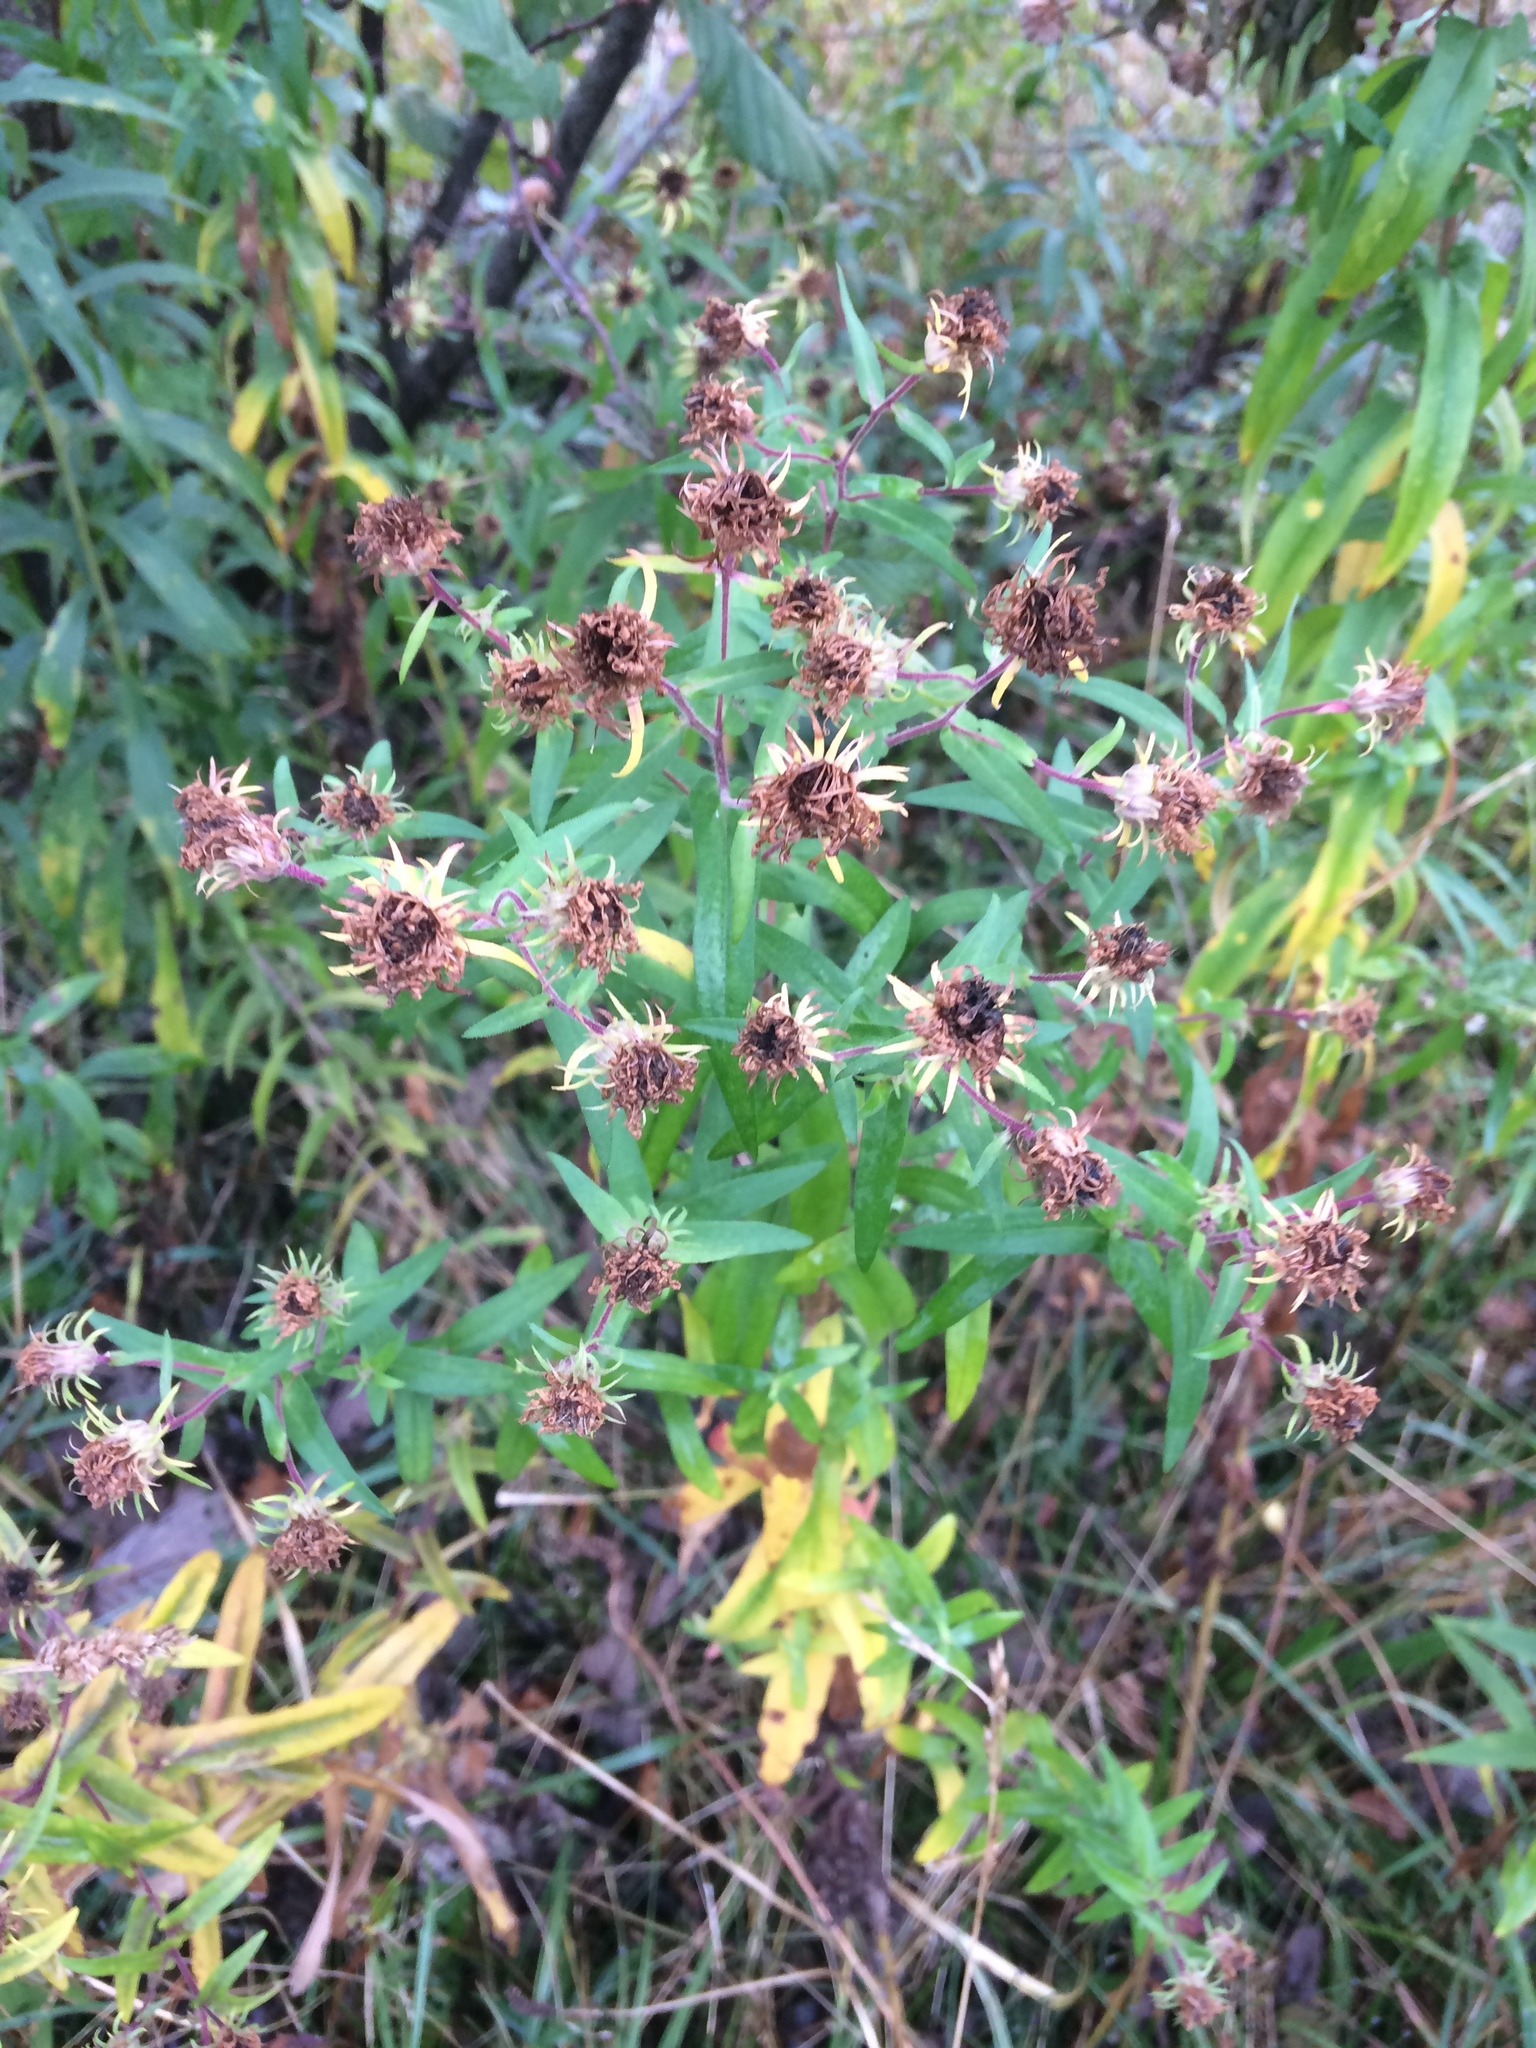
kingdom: Plantae
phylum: Tracheophyta
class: Magnoliopsida
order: Asterales
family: Asteraceae
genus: Symphyotrichum
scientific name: Symphyotrichum puniceum
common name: Bog aster
